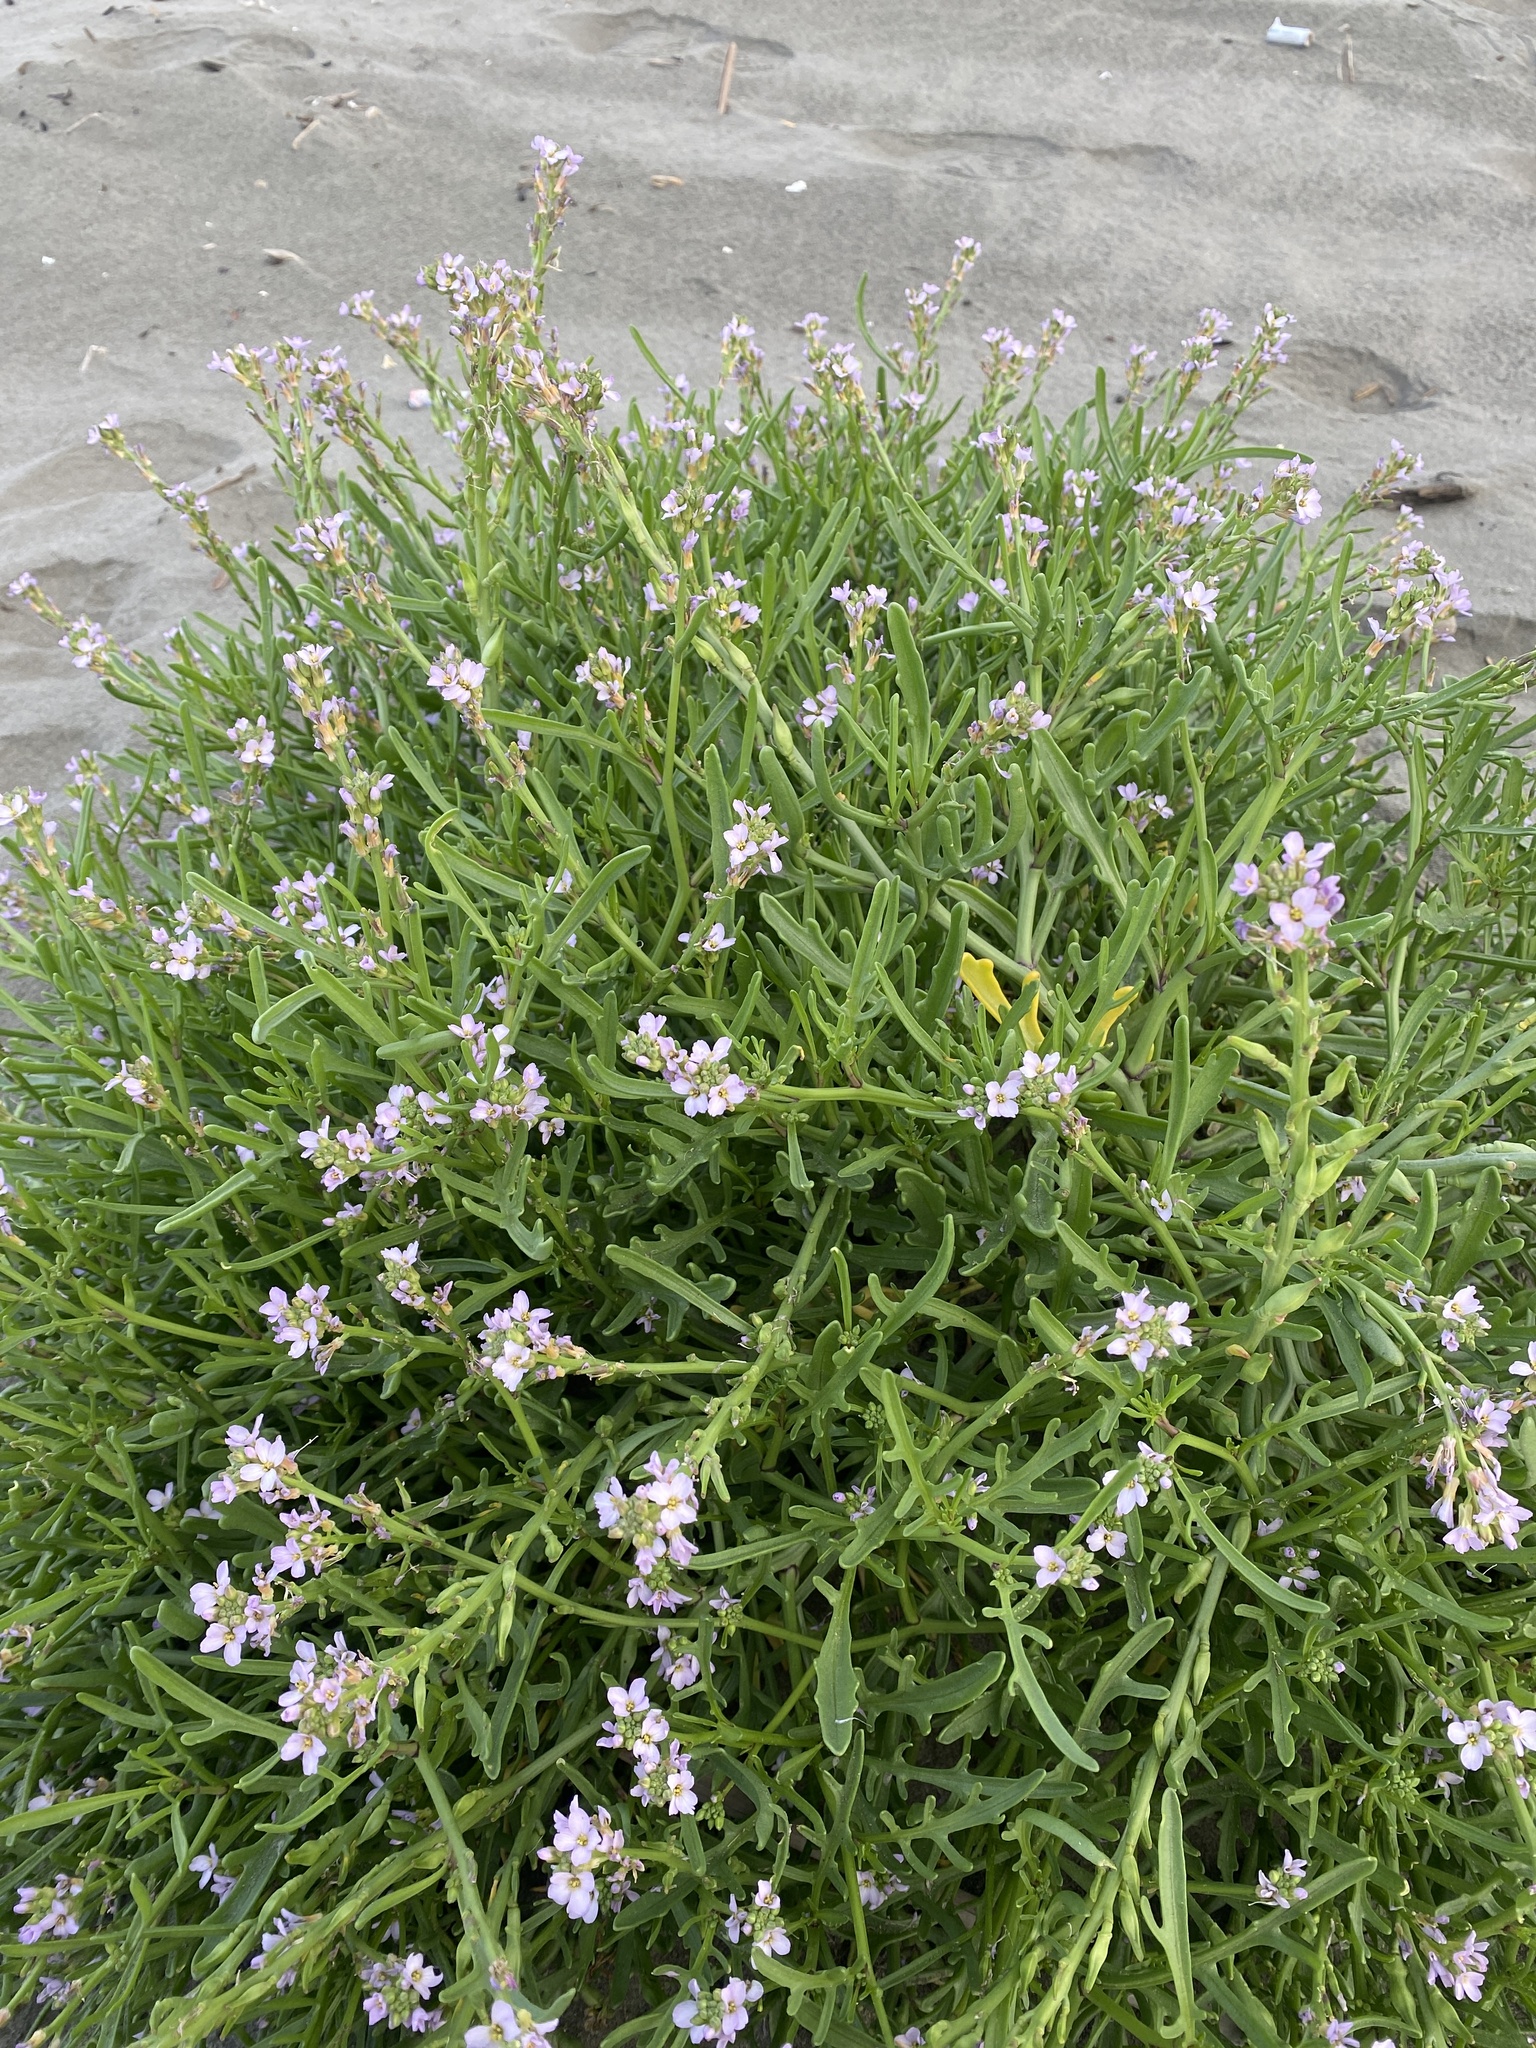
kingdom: Plantae
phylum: Tracheophyta
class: Magnoliopsida
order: Brassicales
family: Brassicaceae
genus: Cakile
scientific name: Cakile maritima
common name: Sea rocket
